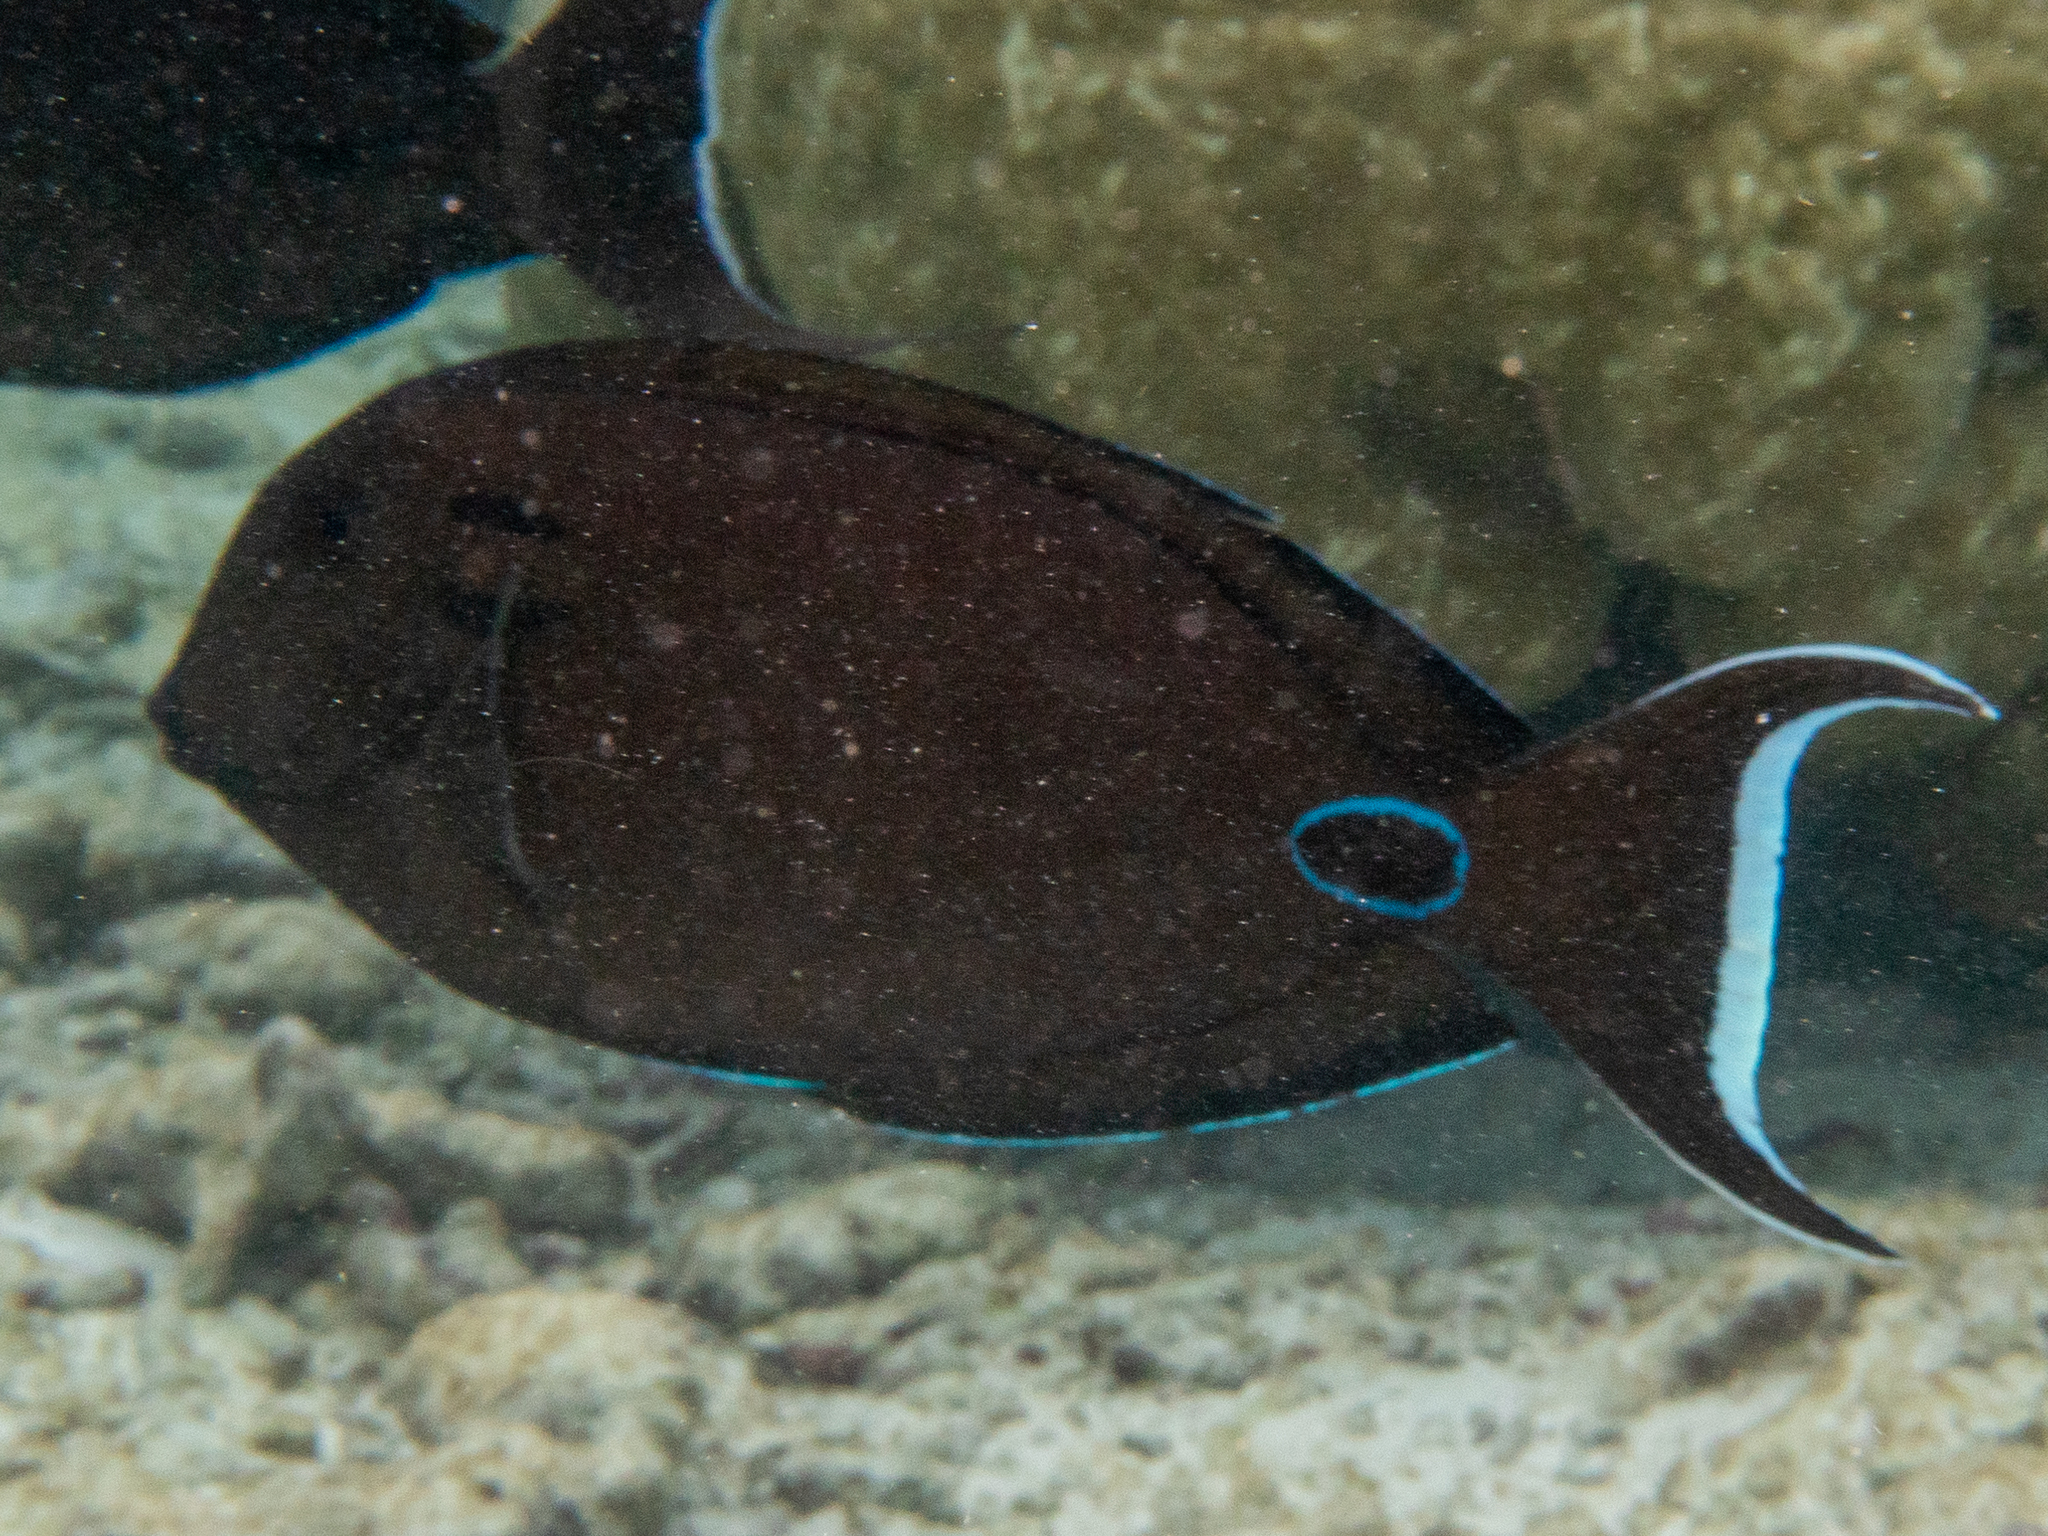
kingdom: Animalia
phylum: Chordata
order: Perciformes
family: Acanthuridae
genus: Acanthurus
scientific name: Acanthurus tennentii
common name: Doubleband surgeonfish
